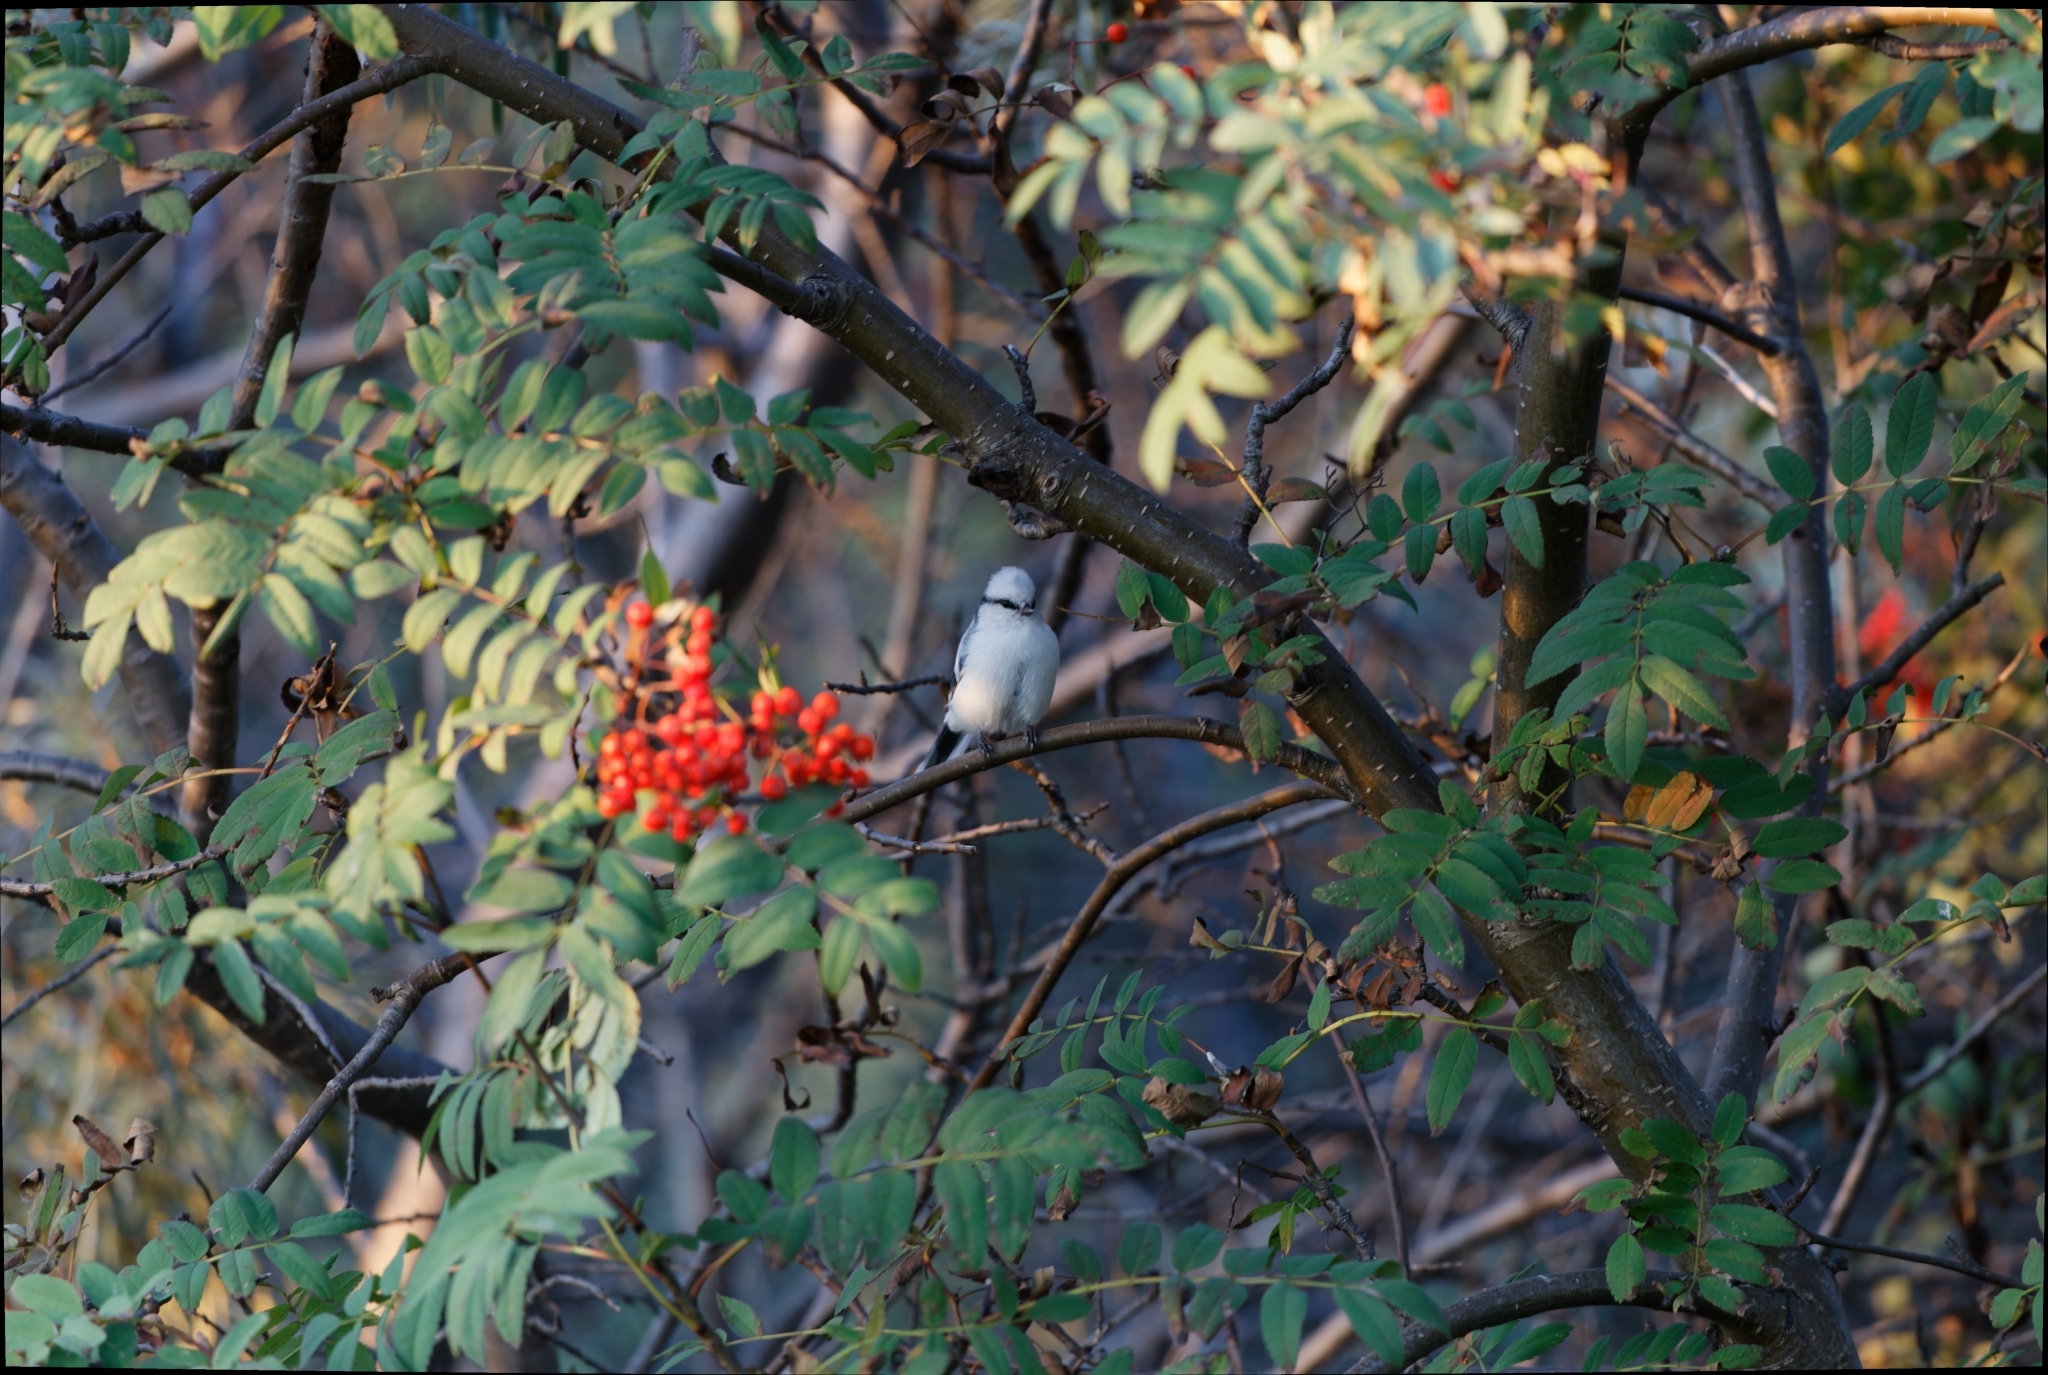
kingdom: Animalia
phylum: Chordata
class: Aves
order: Passeriformes
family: Paridae
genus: Cyanistes
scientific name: Cyanistes cyanus
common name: Azure tit
